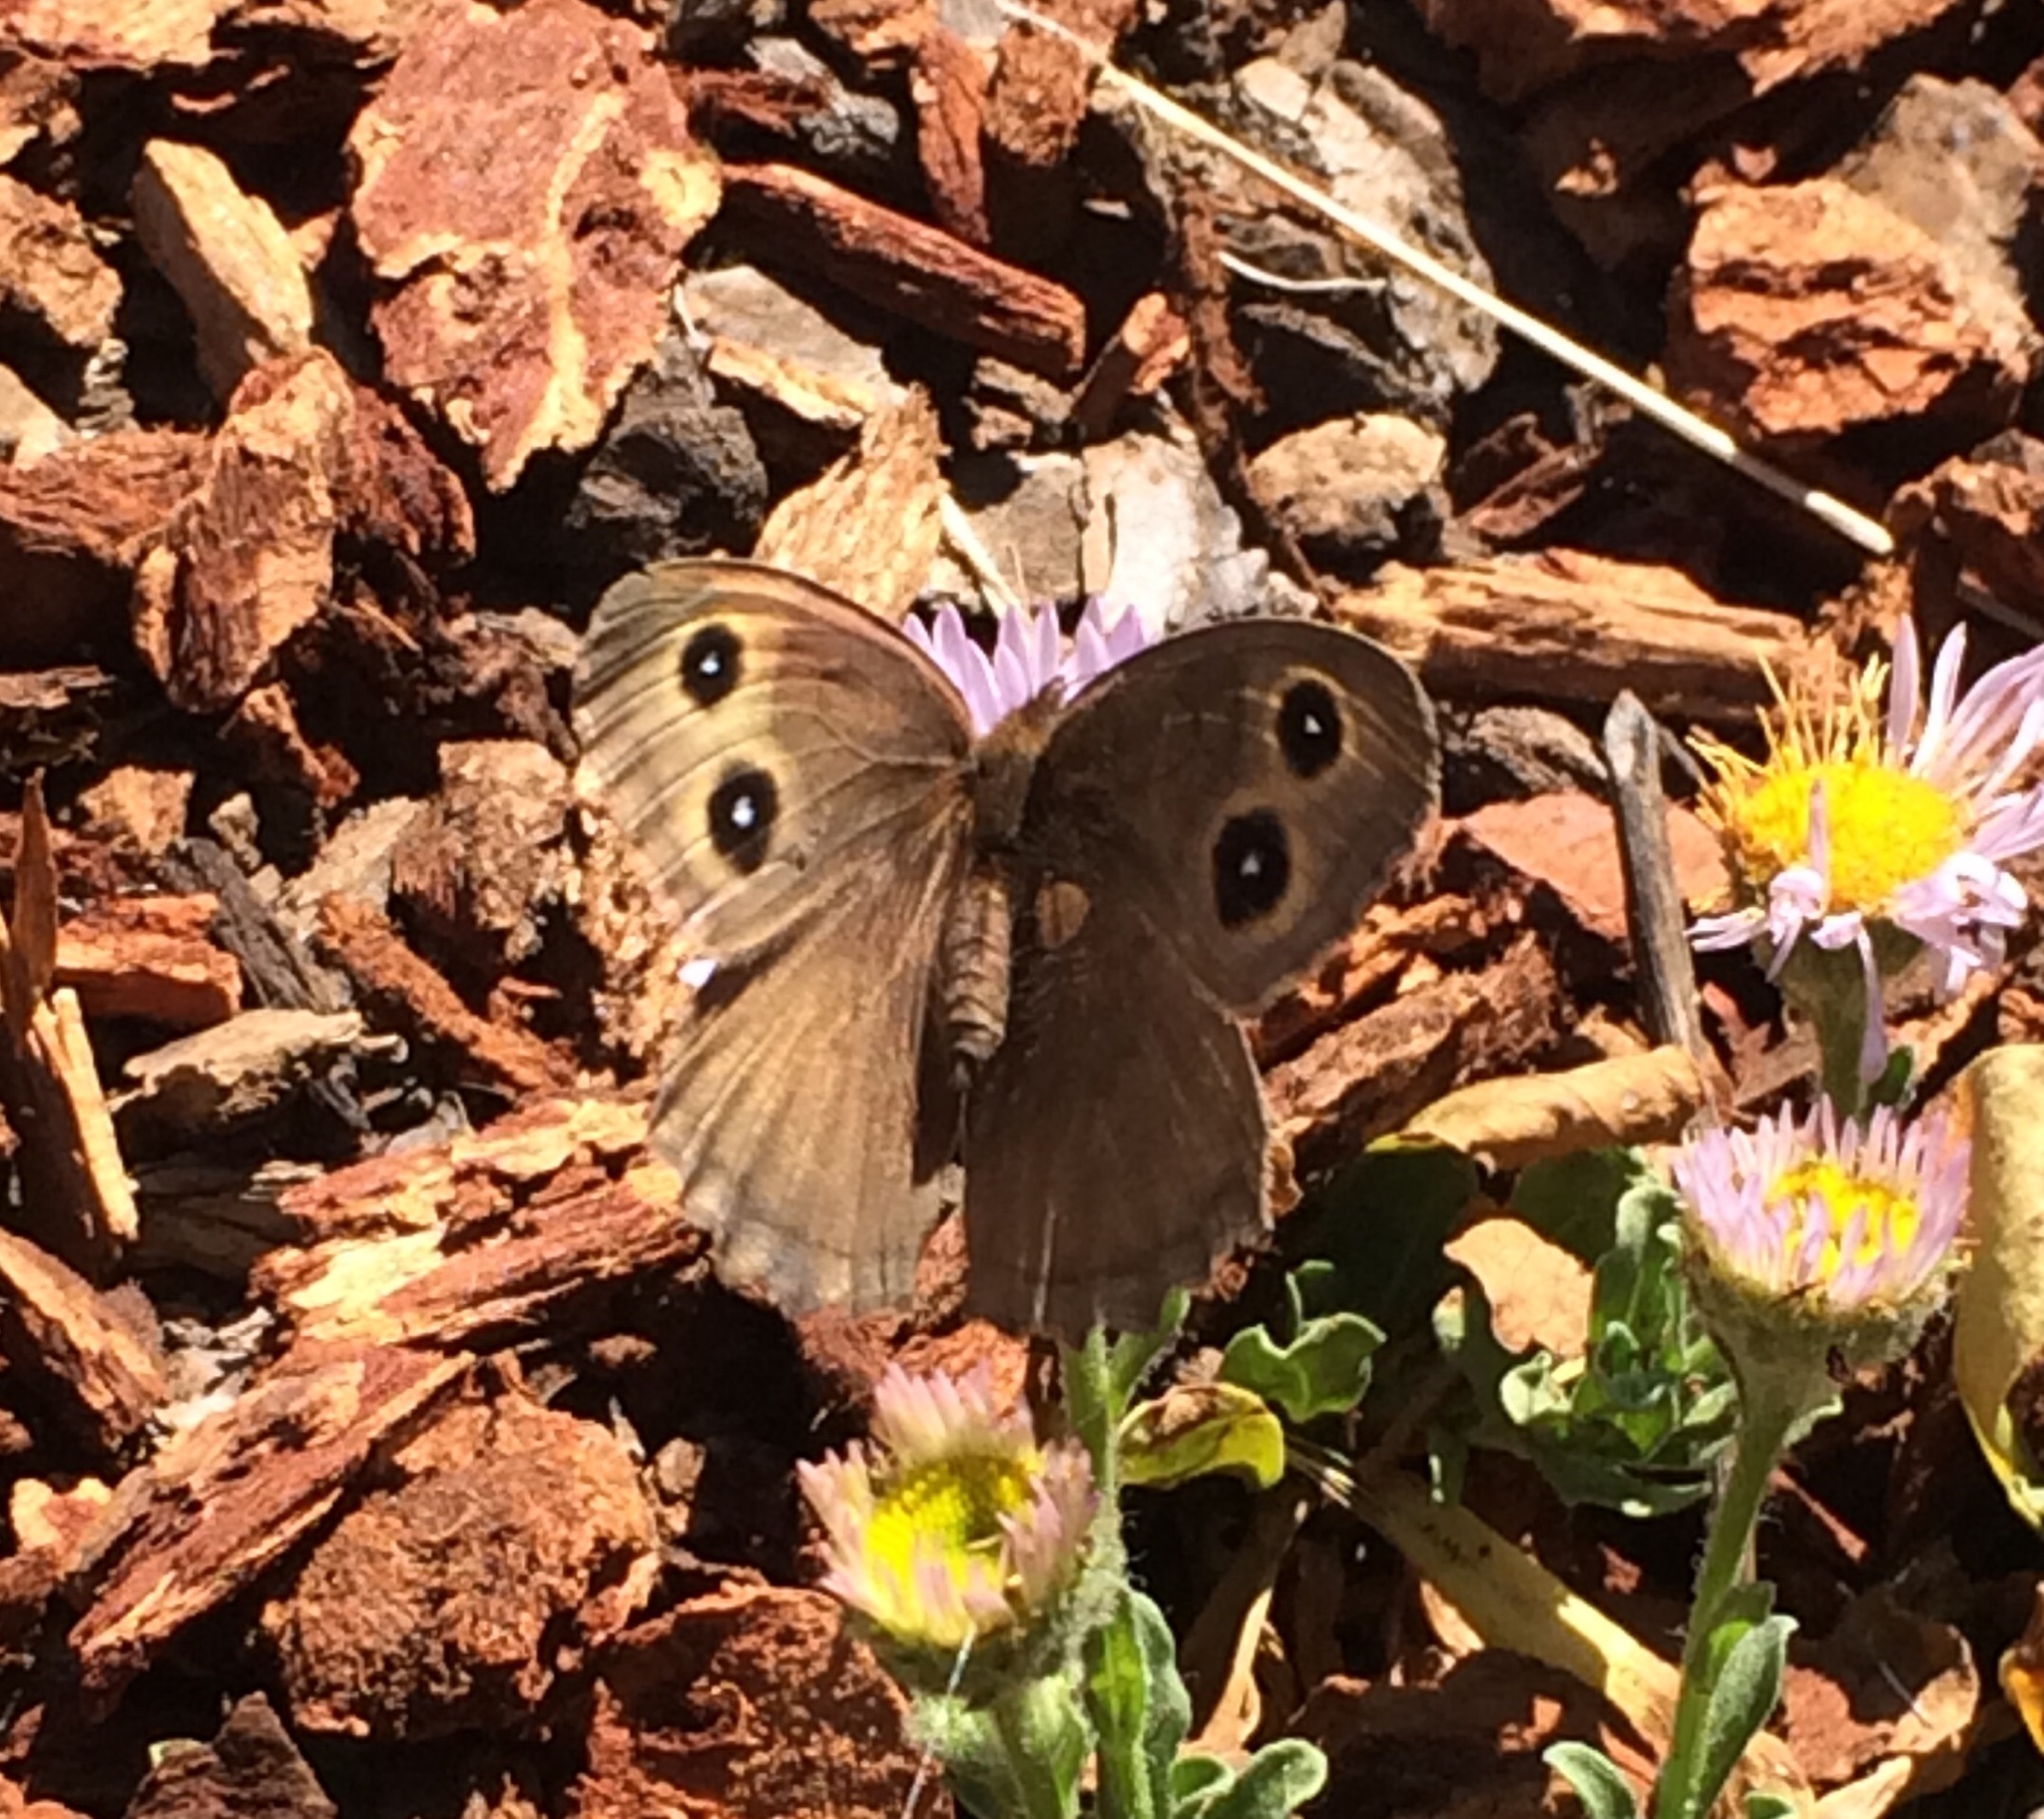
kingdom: Animalia
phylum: Arthropoda
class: Insecta
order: Lepidoptera
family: Nymphalidae
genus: Cercyonis
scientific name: Cercyonis pegala
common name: Common wood-nymph
